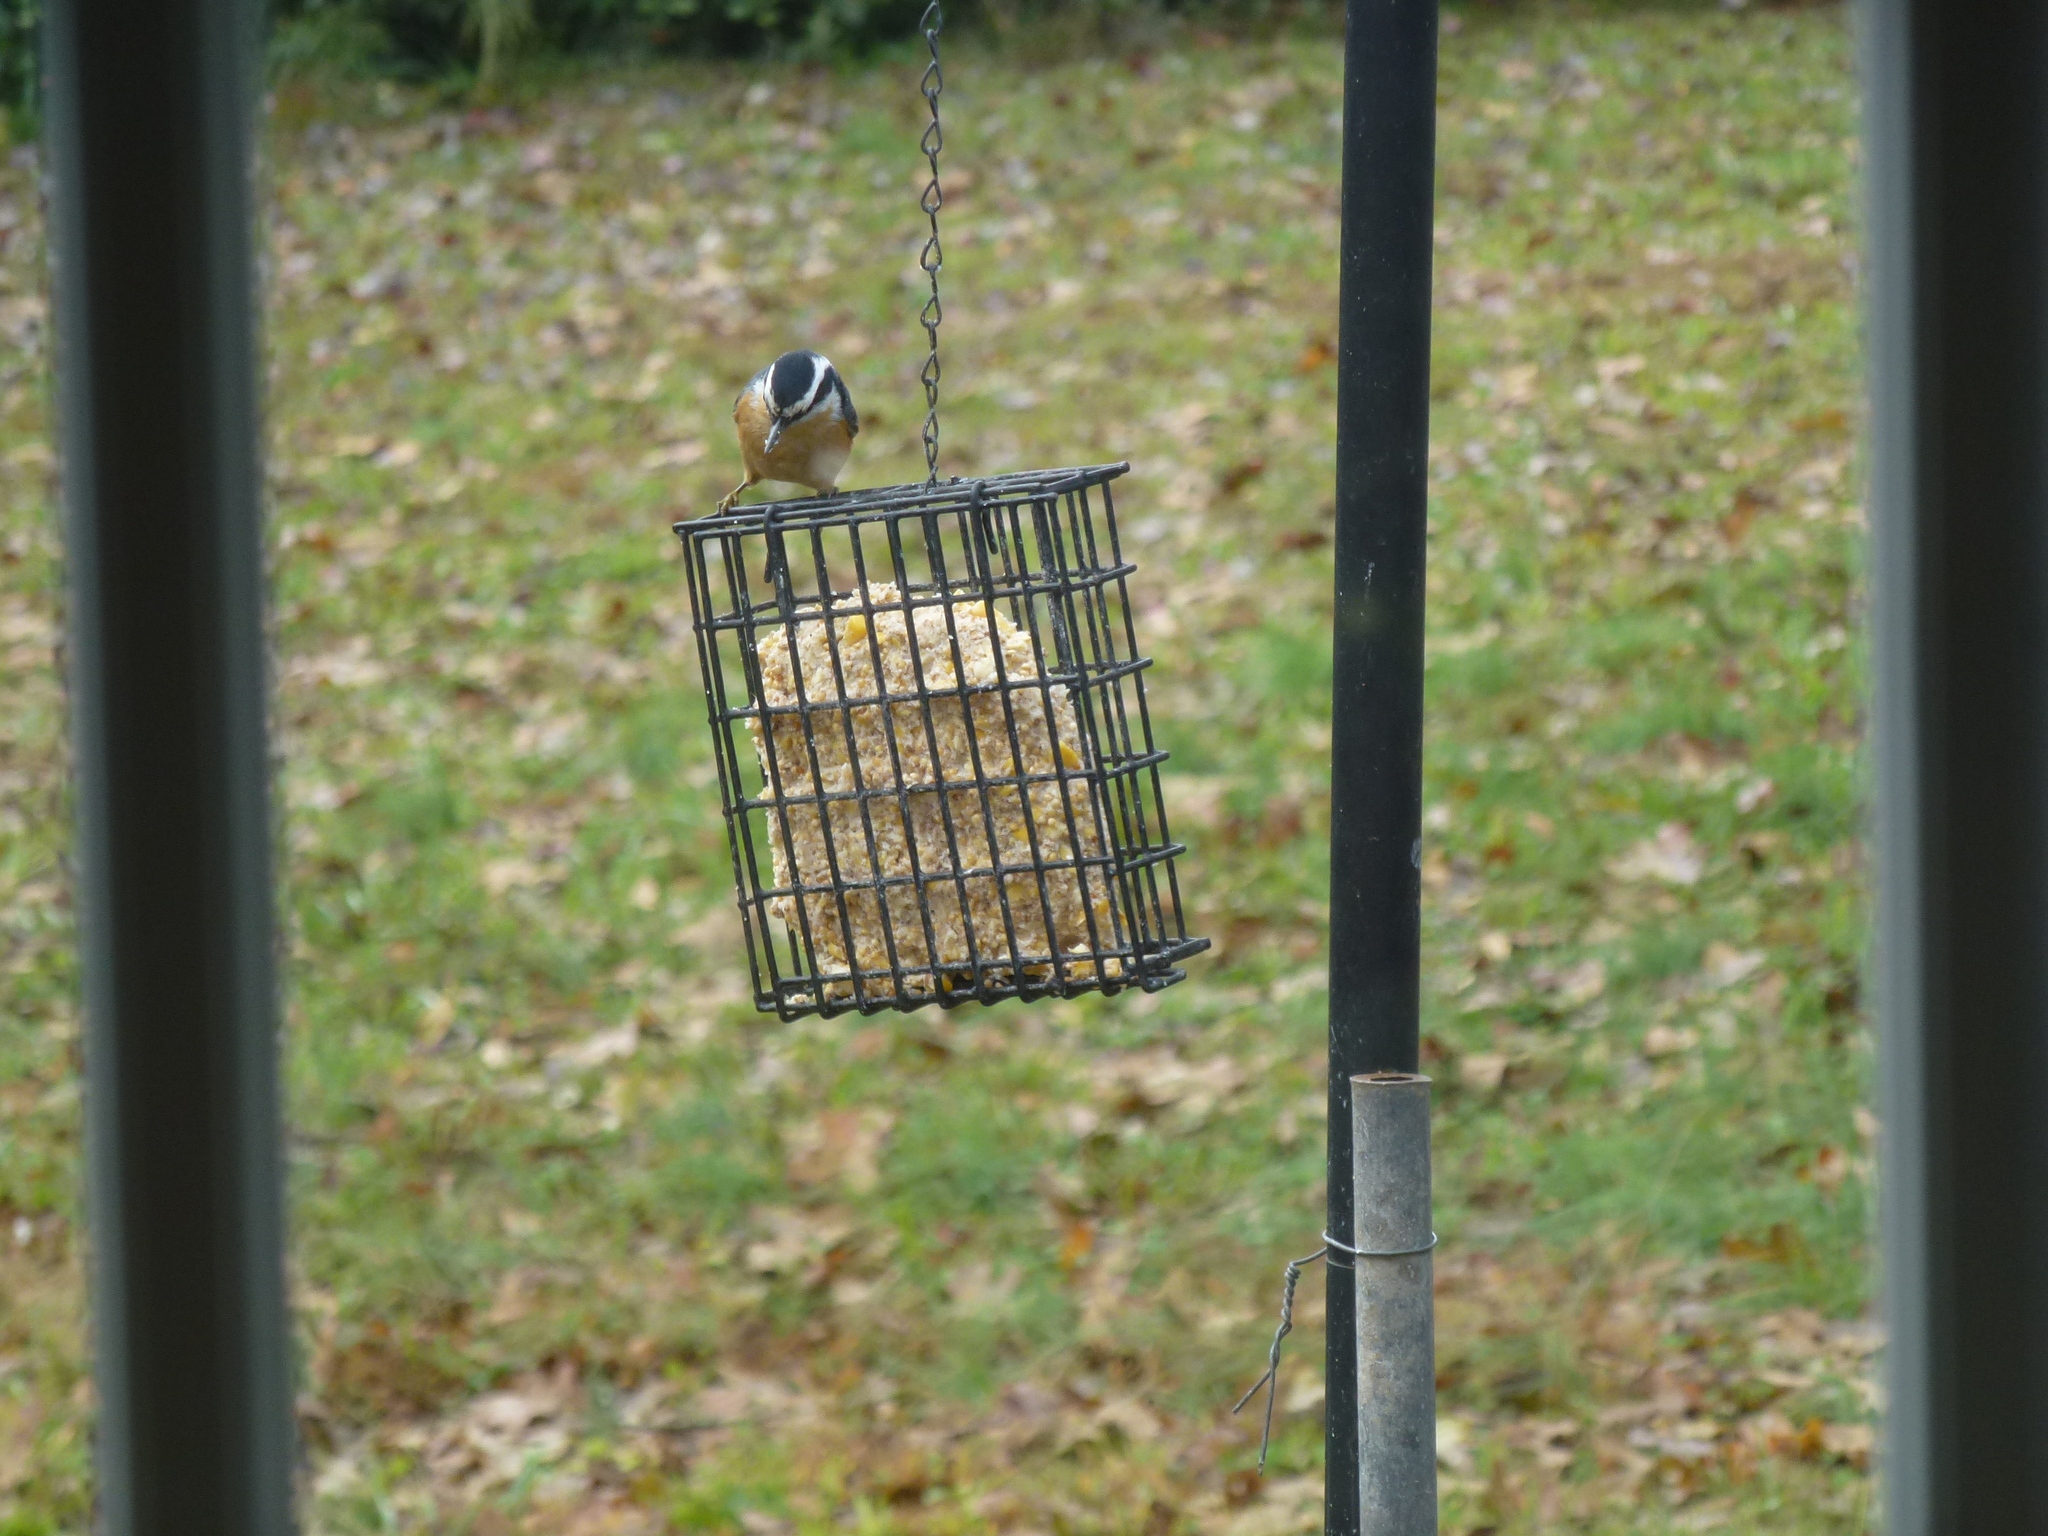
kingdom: Animalia
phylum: Chordata
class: Aves
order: Passeriformes
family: Sittidae
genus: Sitta
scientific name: Sitta canadensis
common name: Red-breasted nuthatch
